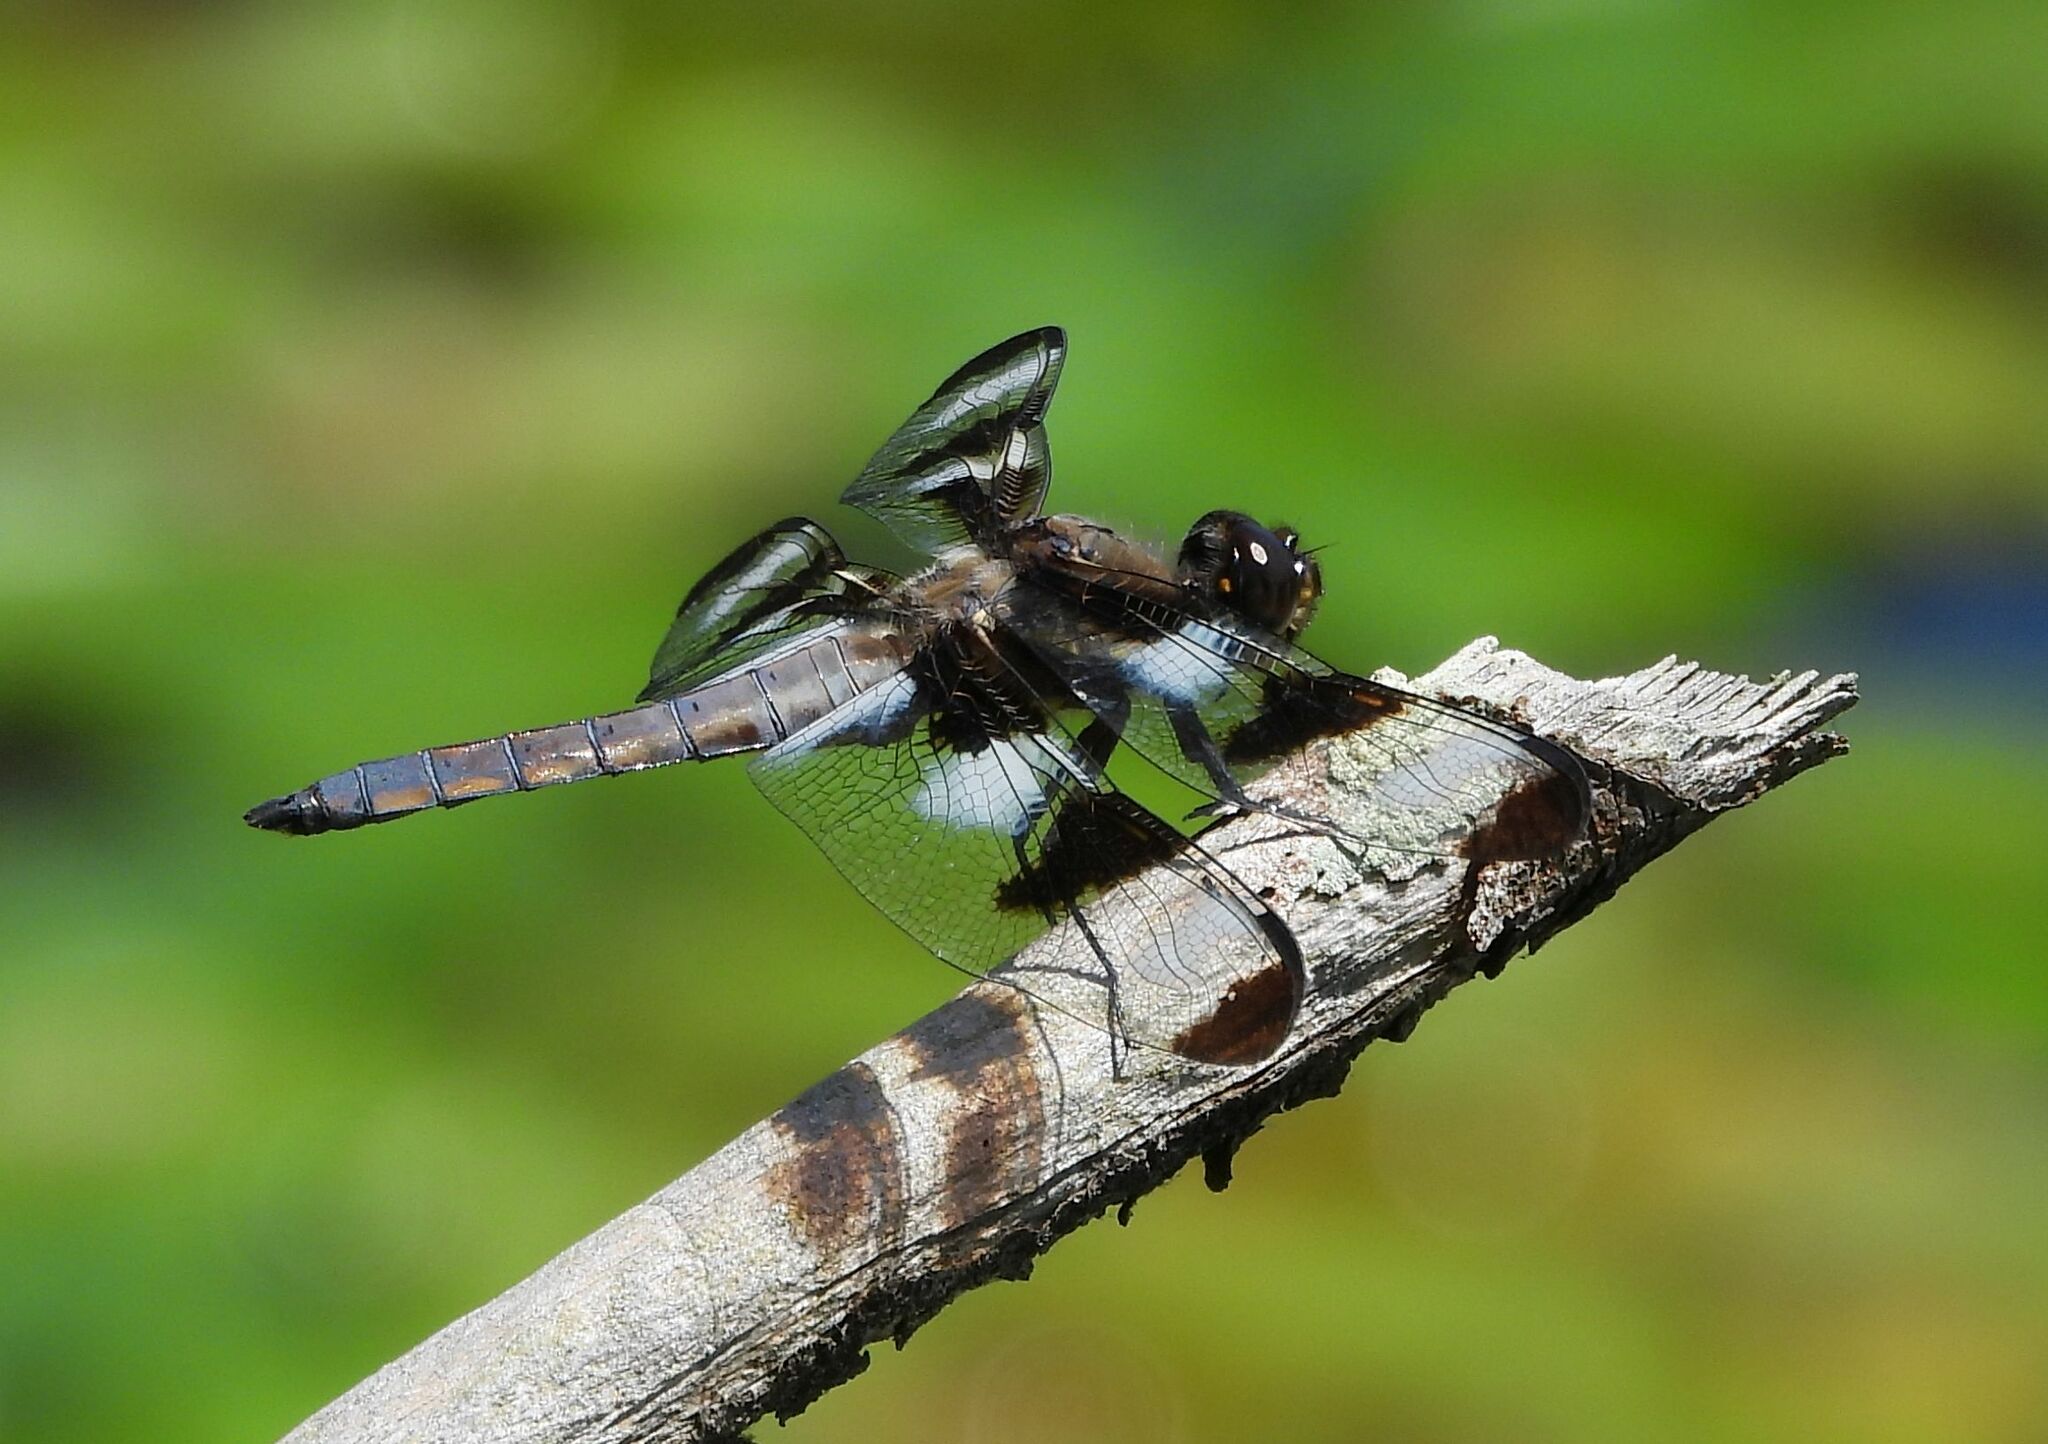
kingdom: Animalia
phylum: Arthropoda
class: Insecta
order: Odonata
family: Libellulidae
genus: Libellula
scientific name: Libellula pulchella
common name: Twelve-spotted skimmer
